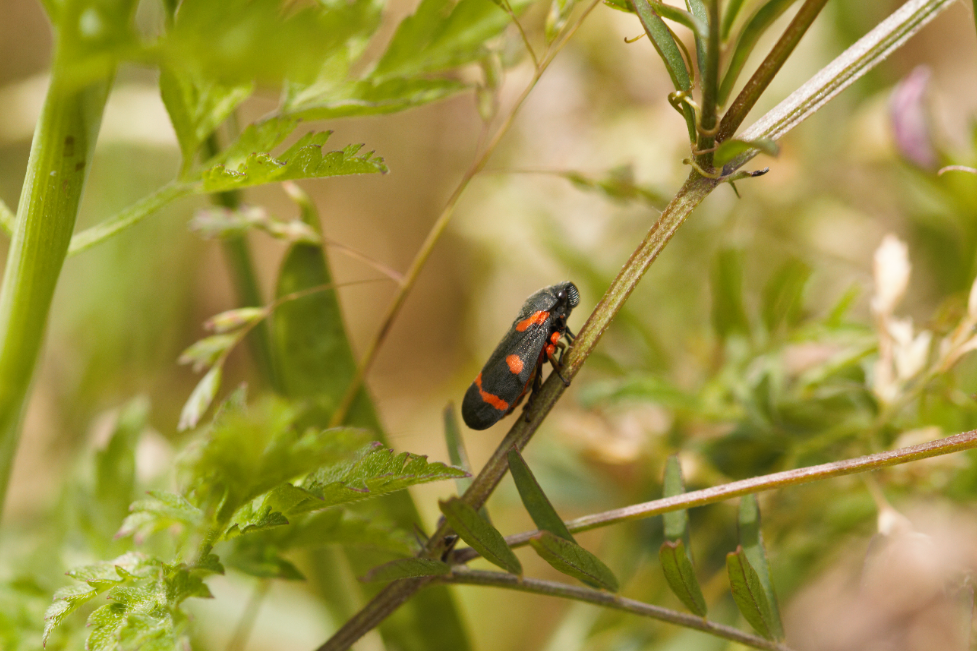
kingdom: Animalia
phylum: Arthropoda
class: Insecta
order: Hemiptera
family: Cercopidae
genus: Cercopis
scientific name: Cercopis intermedia
